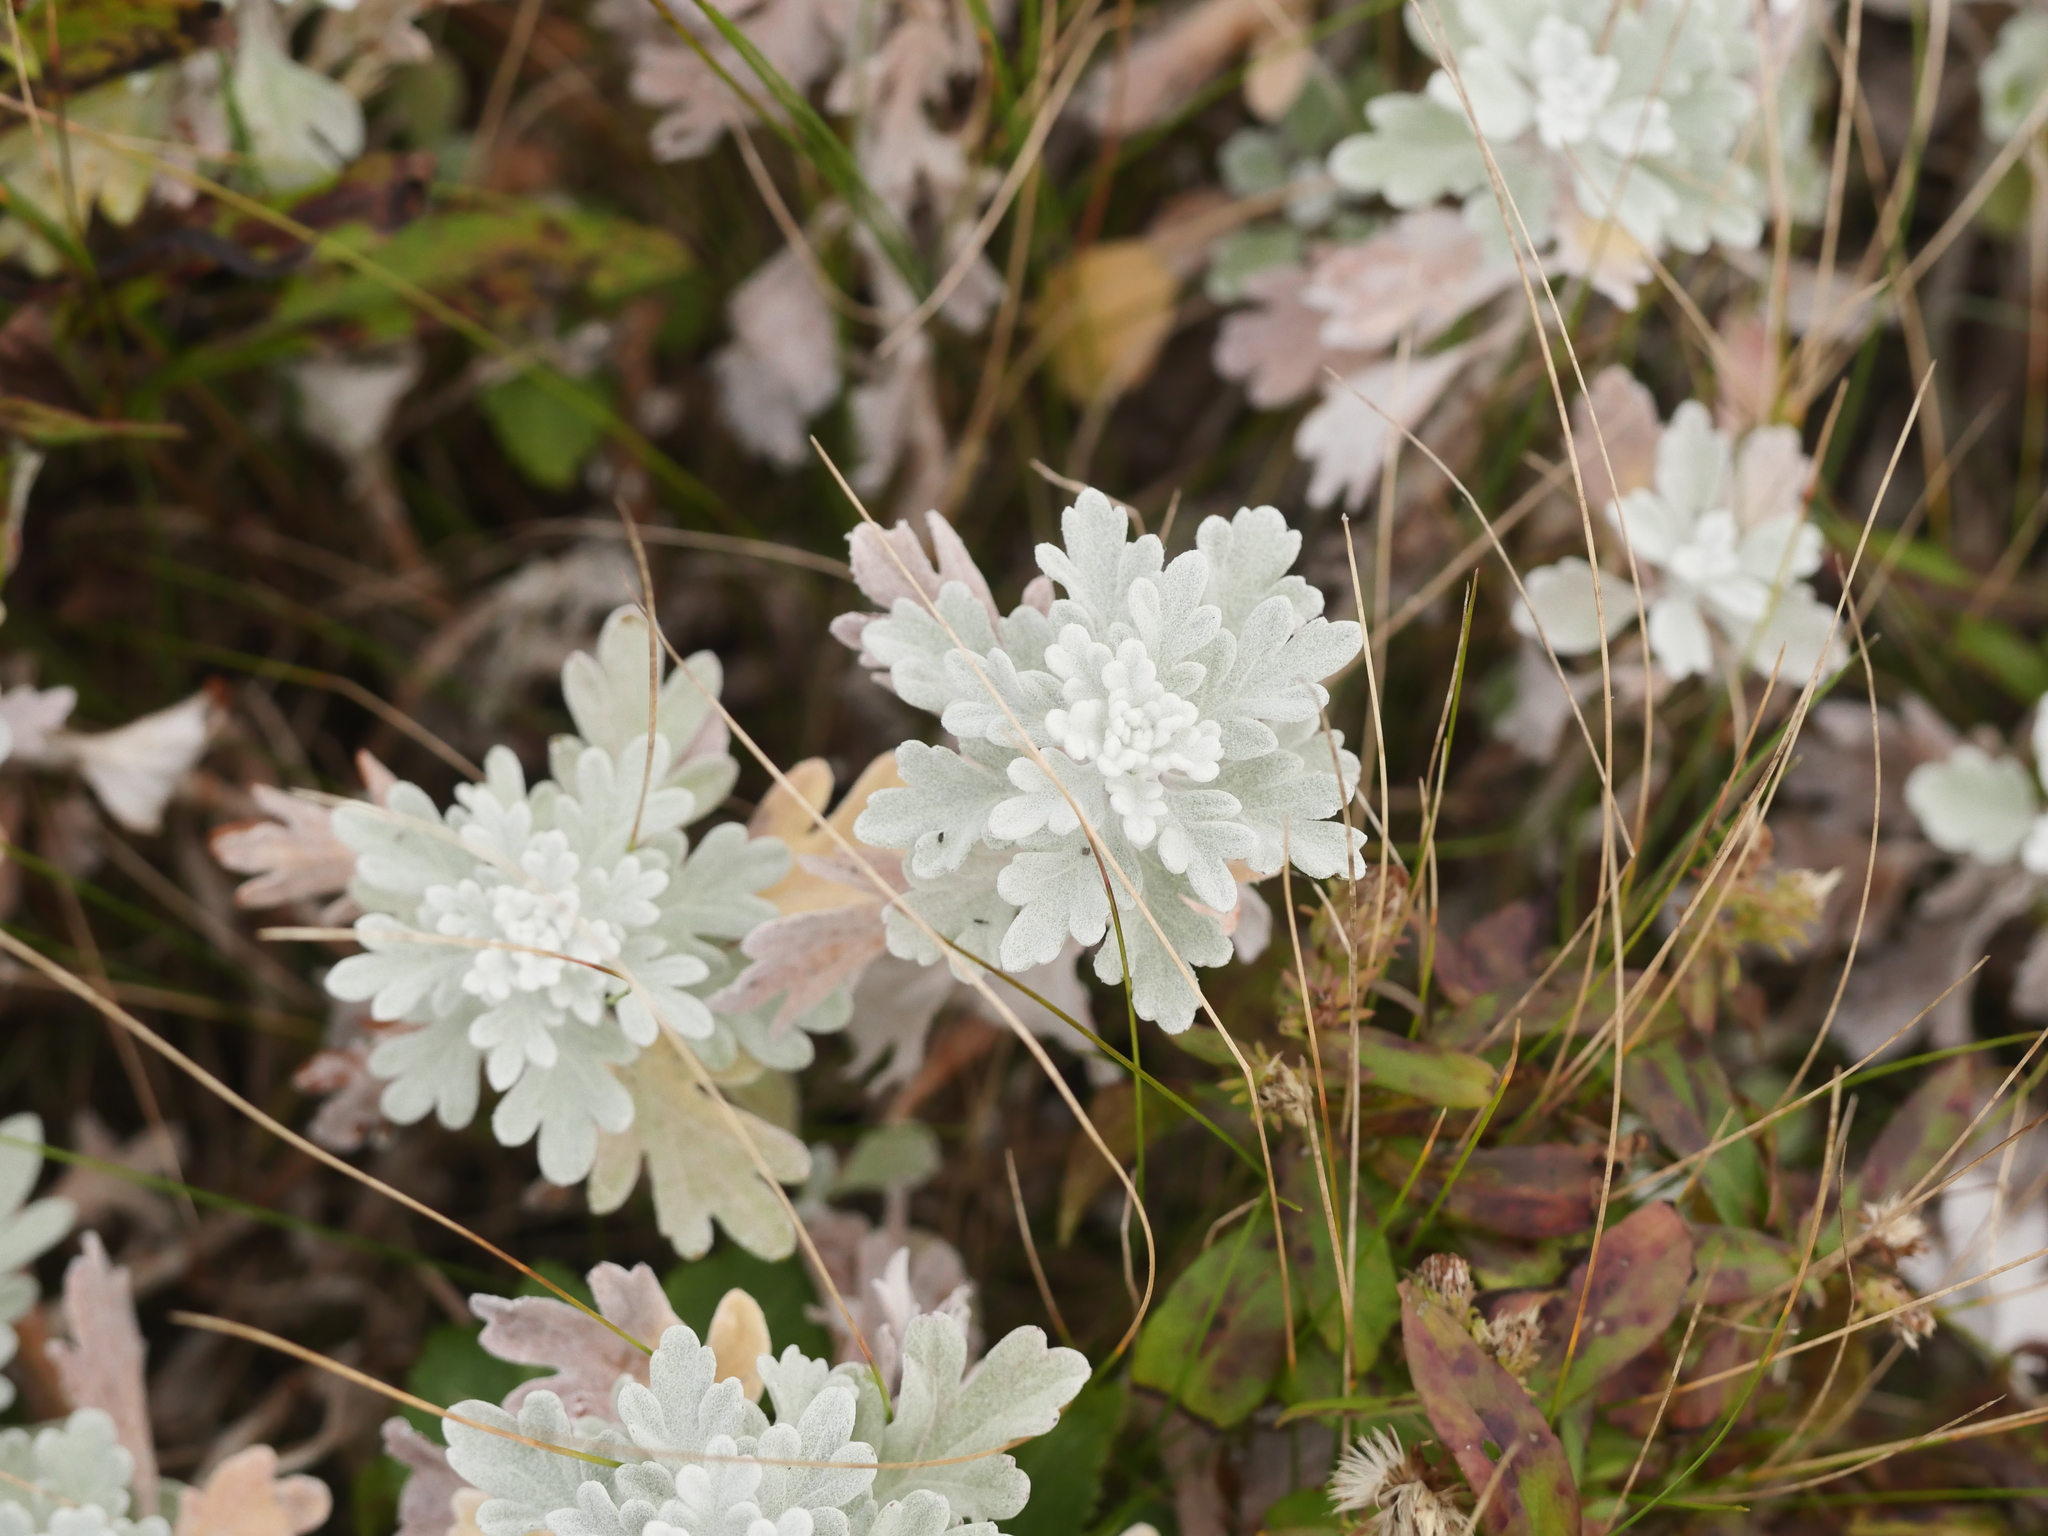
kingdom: Plantae
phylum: Tracheophyta
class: Magnoliopsida
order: Asterales
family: Asteraceae
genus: Artemisia
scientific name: Artemisia stelleriana
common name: Beach wormwood
